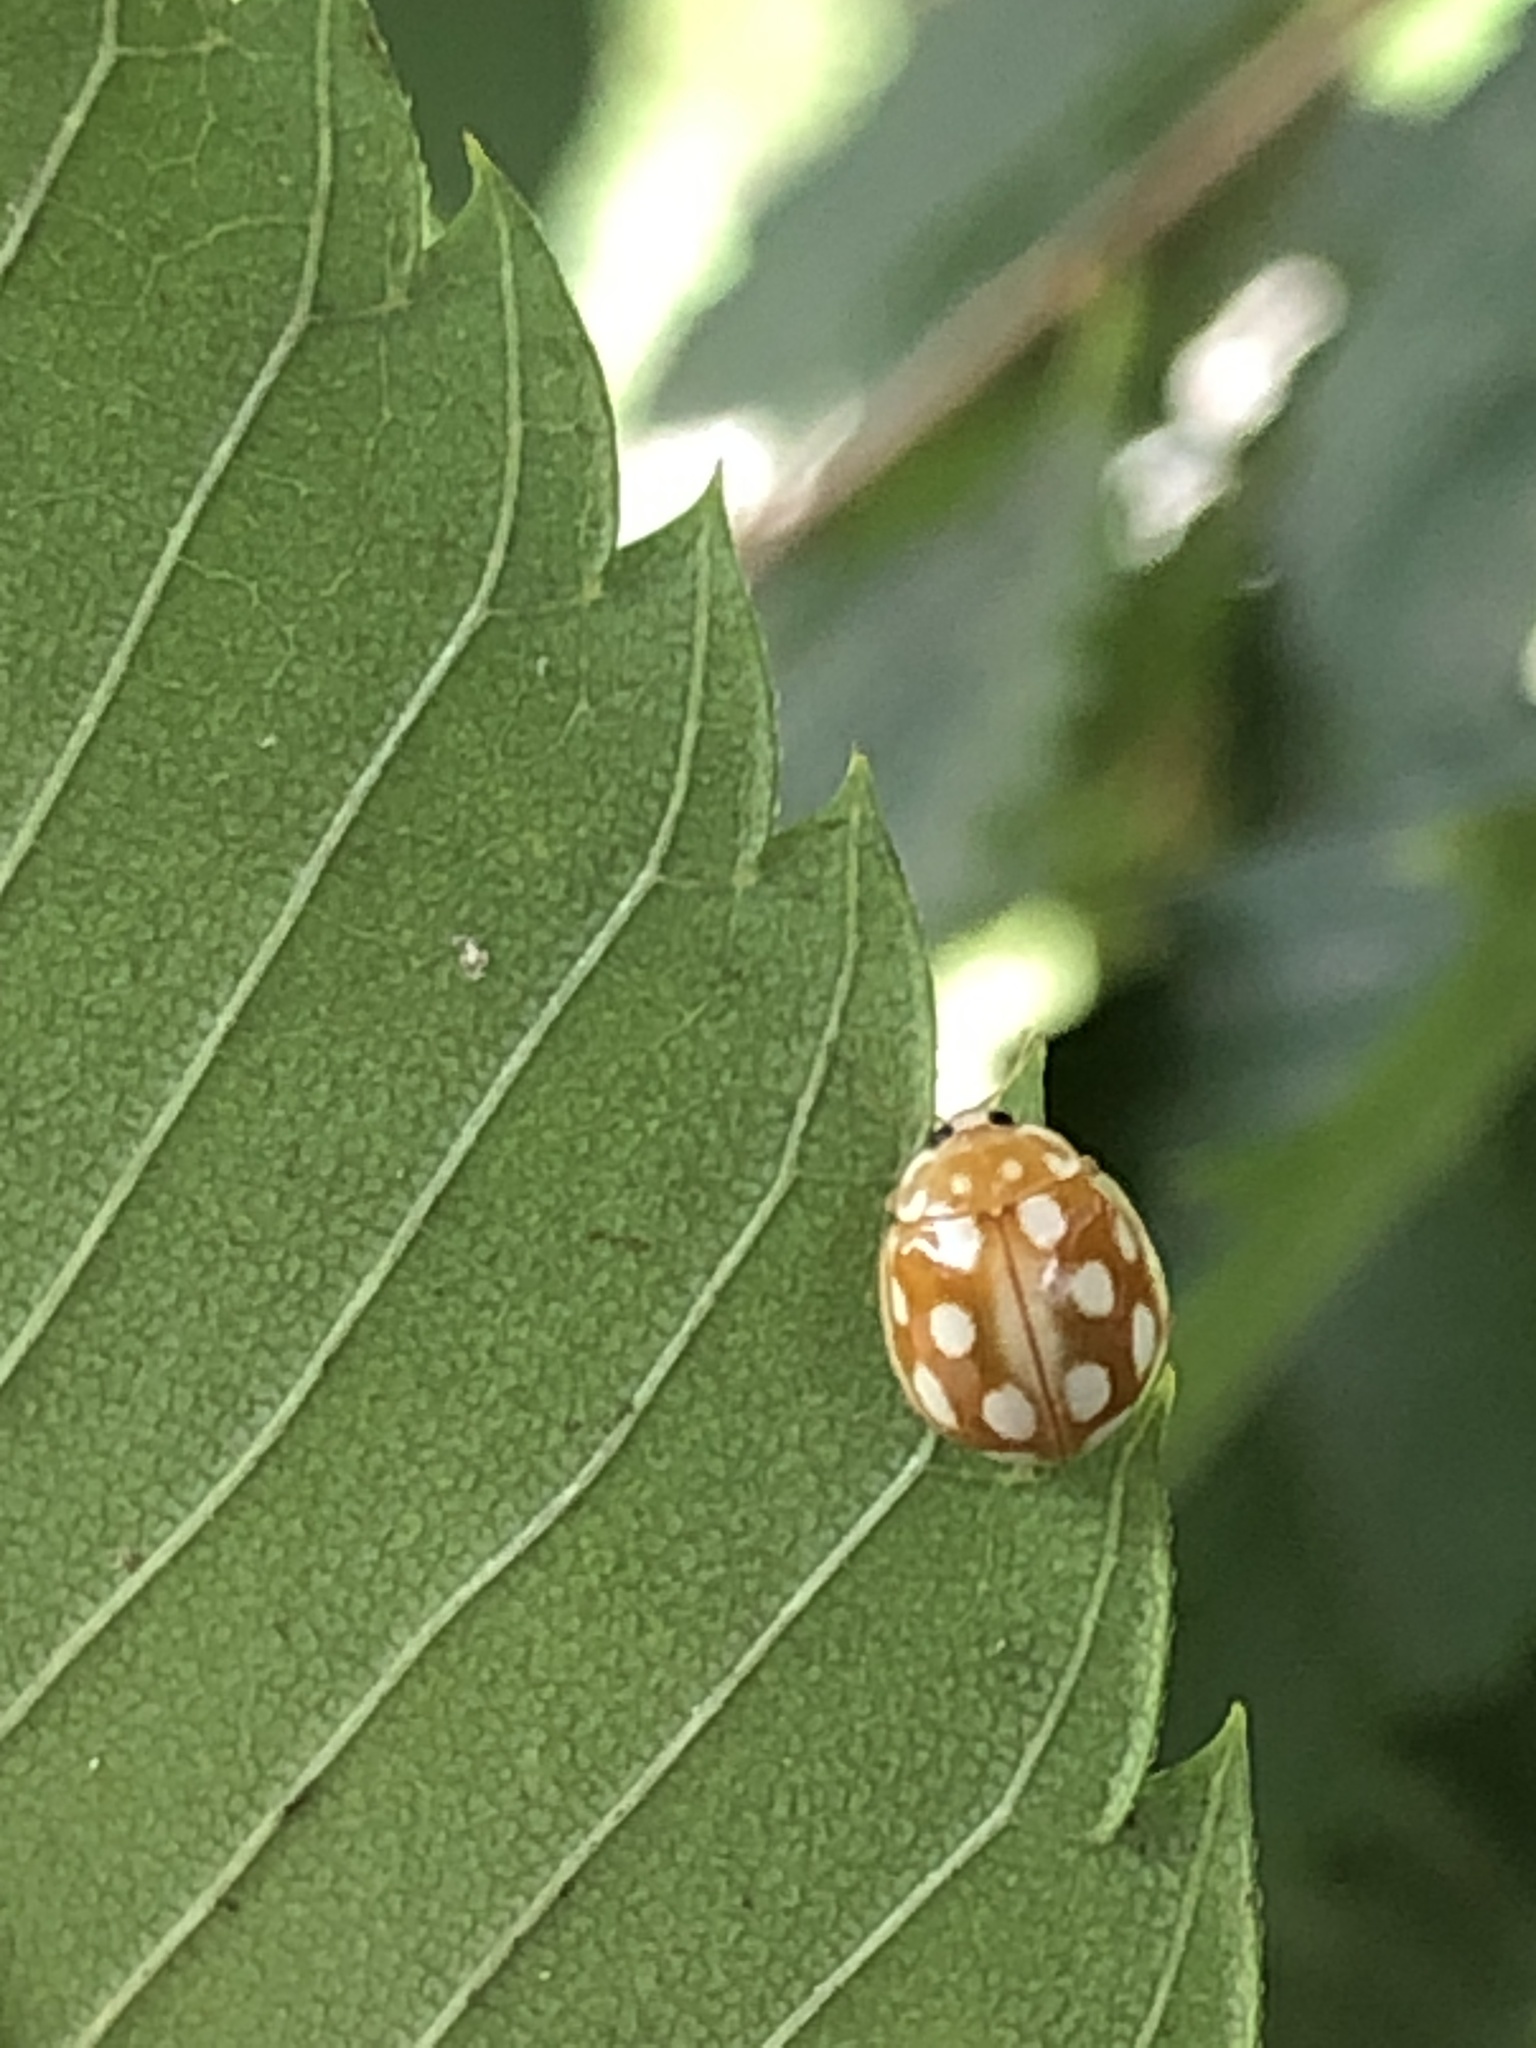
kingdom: Animalia
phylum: Arthropoda
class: Insecta
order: Coleoptera
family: Coccinellidae
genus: Calvia
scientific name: Calvia muiri
